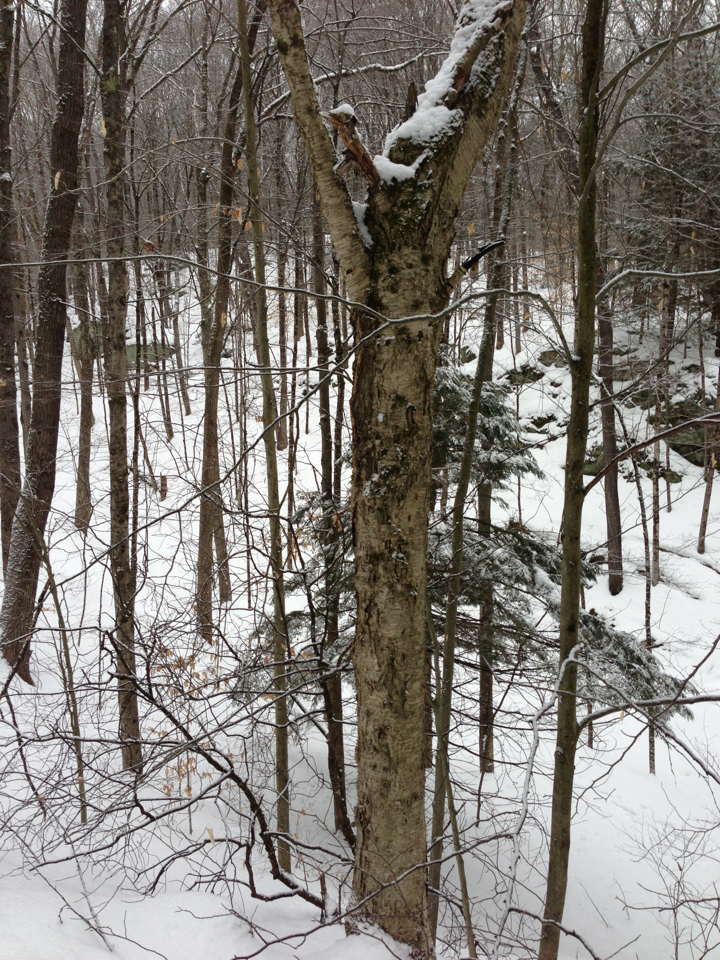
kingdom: Plantae
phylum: Tracheophyta
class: Magnoliopsida
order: Fagales
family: Betulaceae
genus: Betula
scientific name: Betula alleghaniensis
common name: Yellow birch
